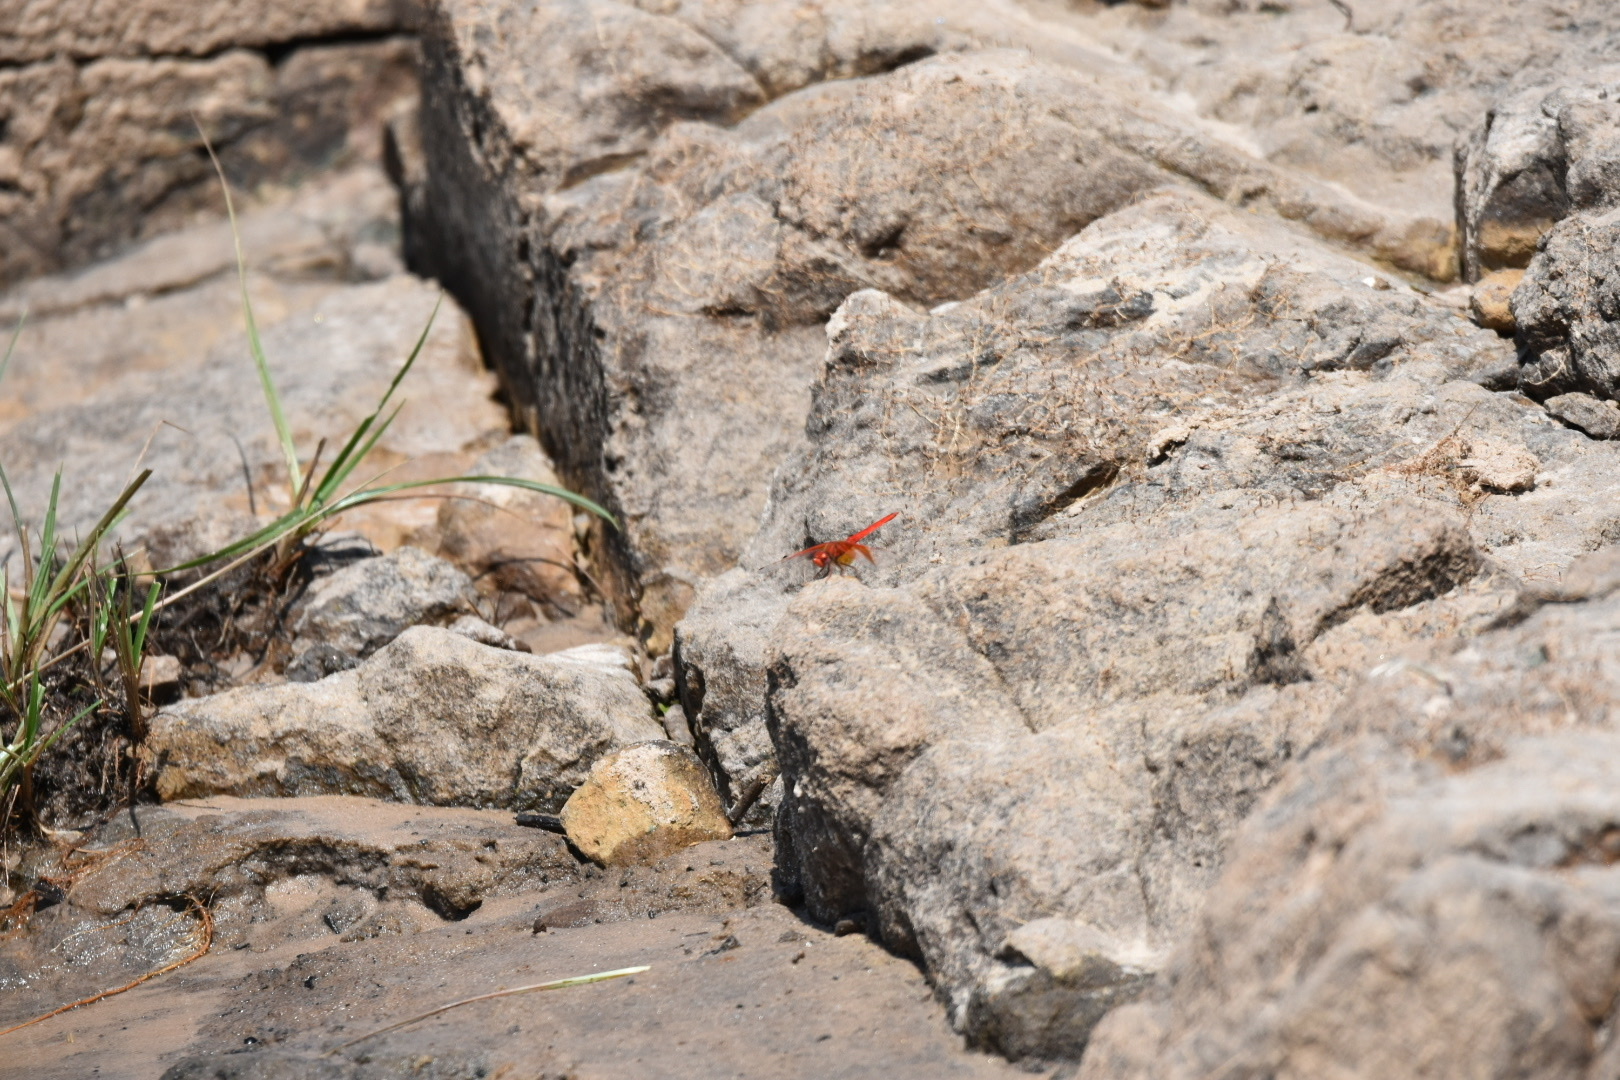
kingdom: Animalia
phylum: Arthropoda
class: Insecta
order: Odonata
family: Libellulidae
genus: Trithemis
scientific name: Trithemis kirbyi
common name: Kirby's dropwing
